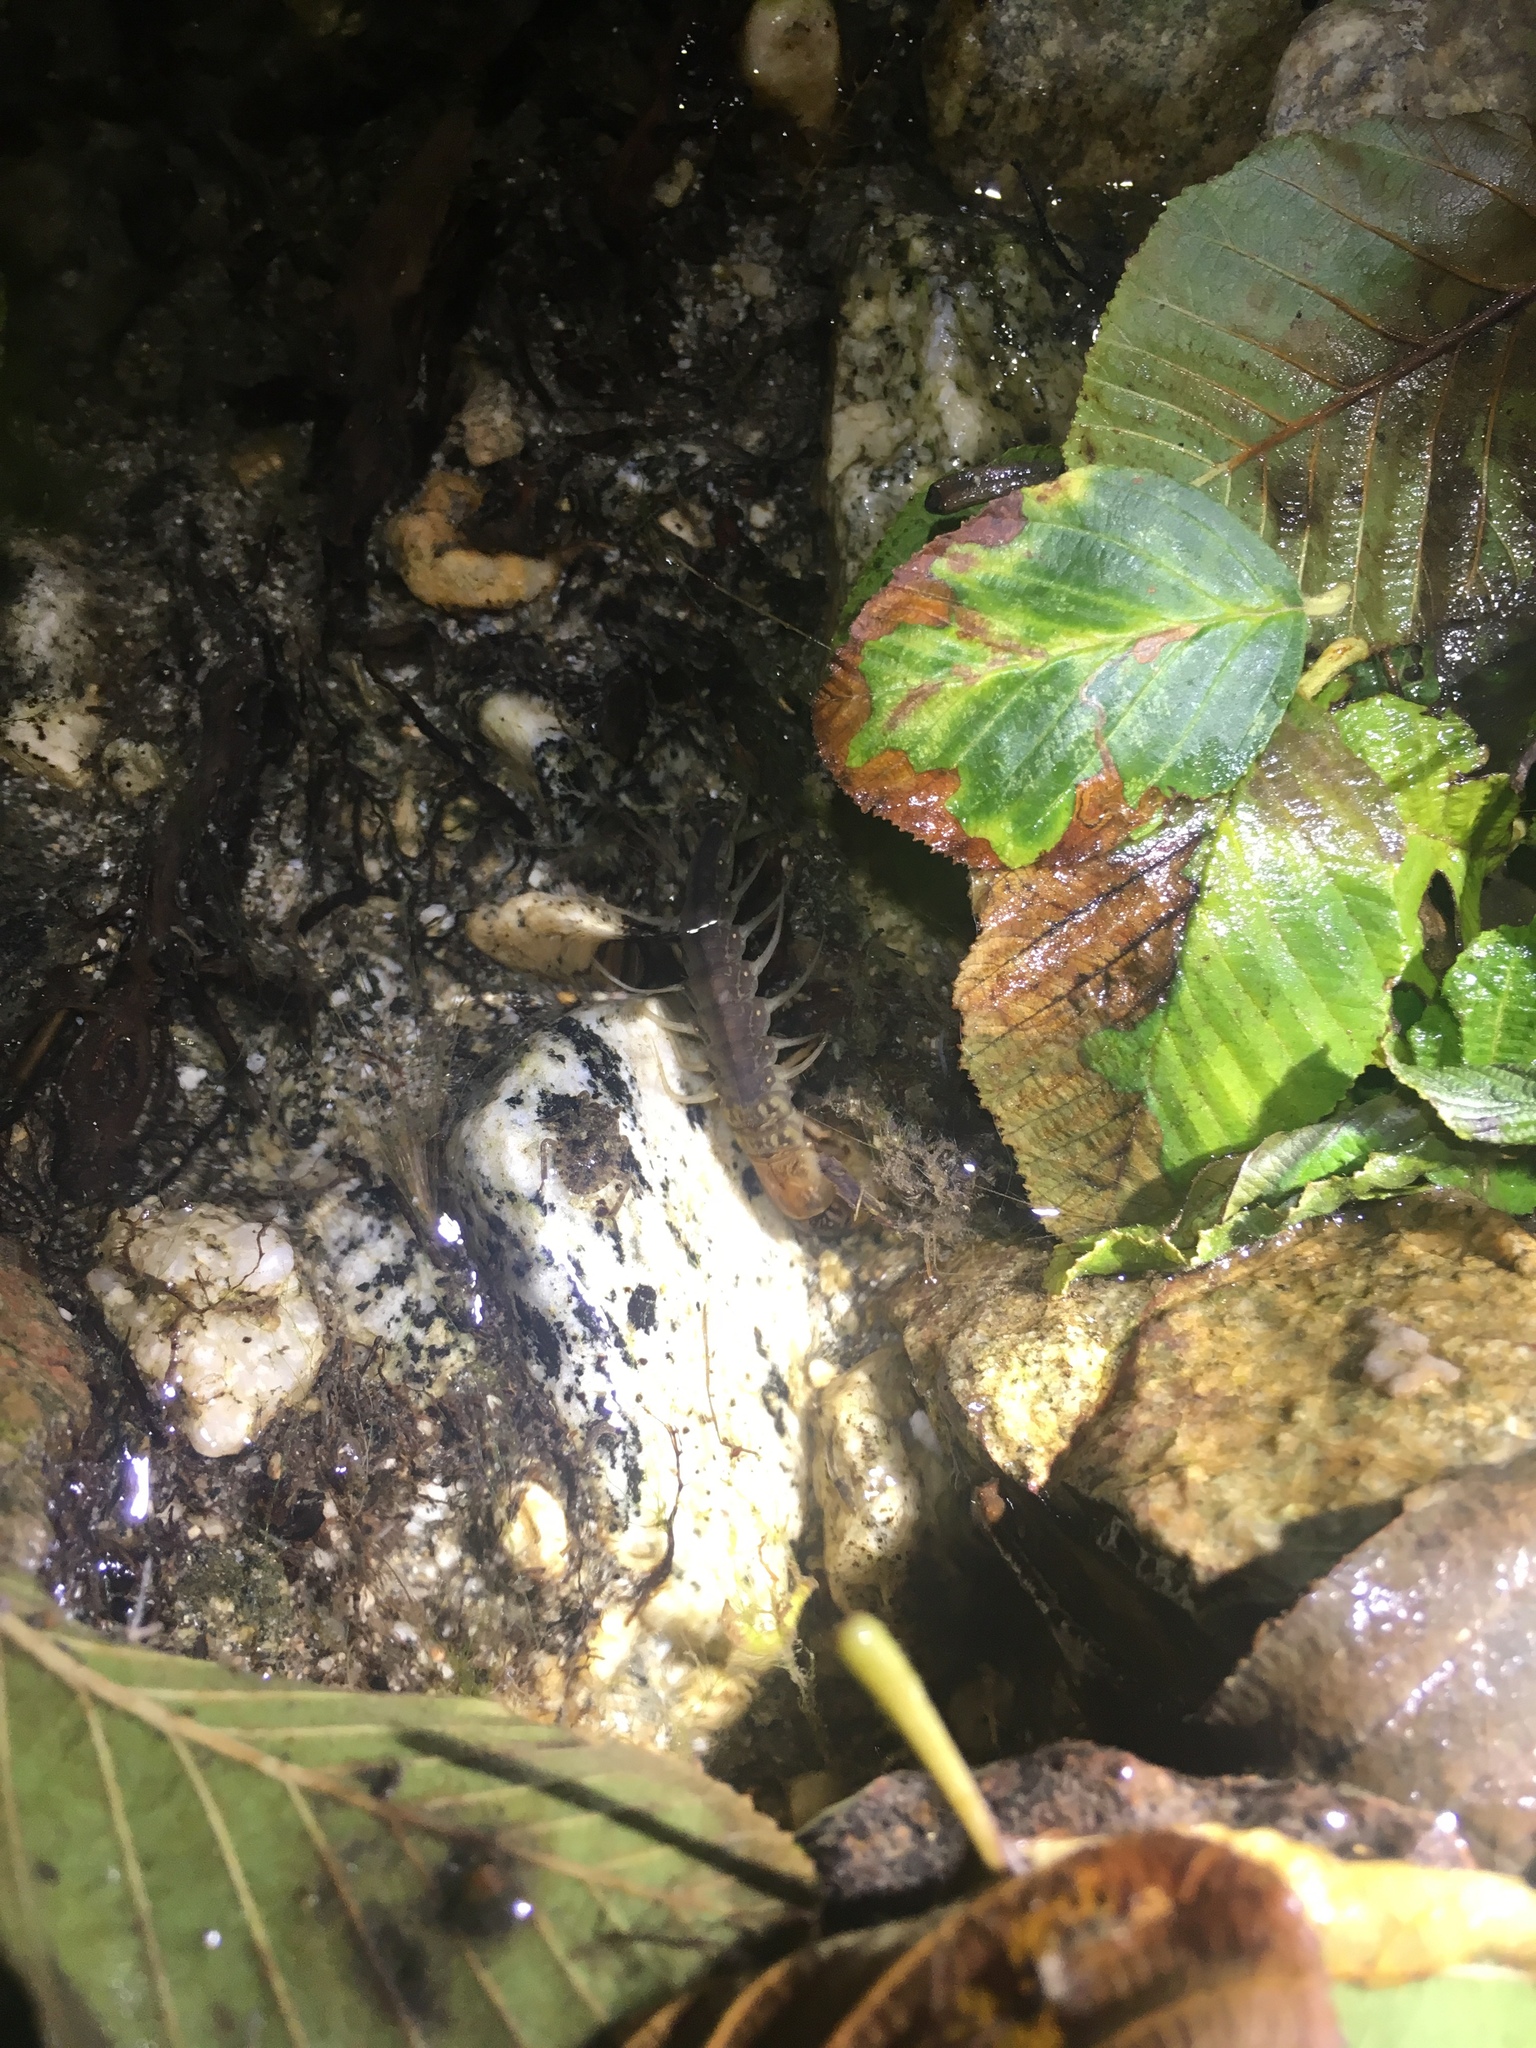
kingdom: Animalia
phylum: Arthropoda
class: Insecta
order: Megaloptera
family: Corydalidae
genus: Neohermes
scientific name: Neohermes filicornis
